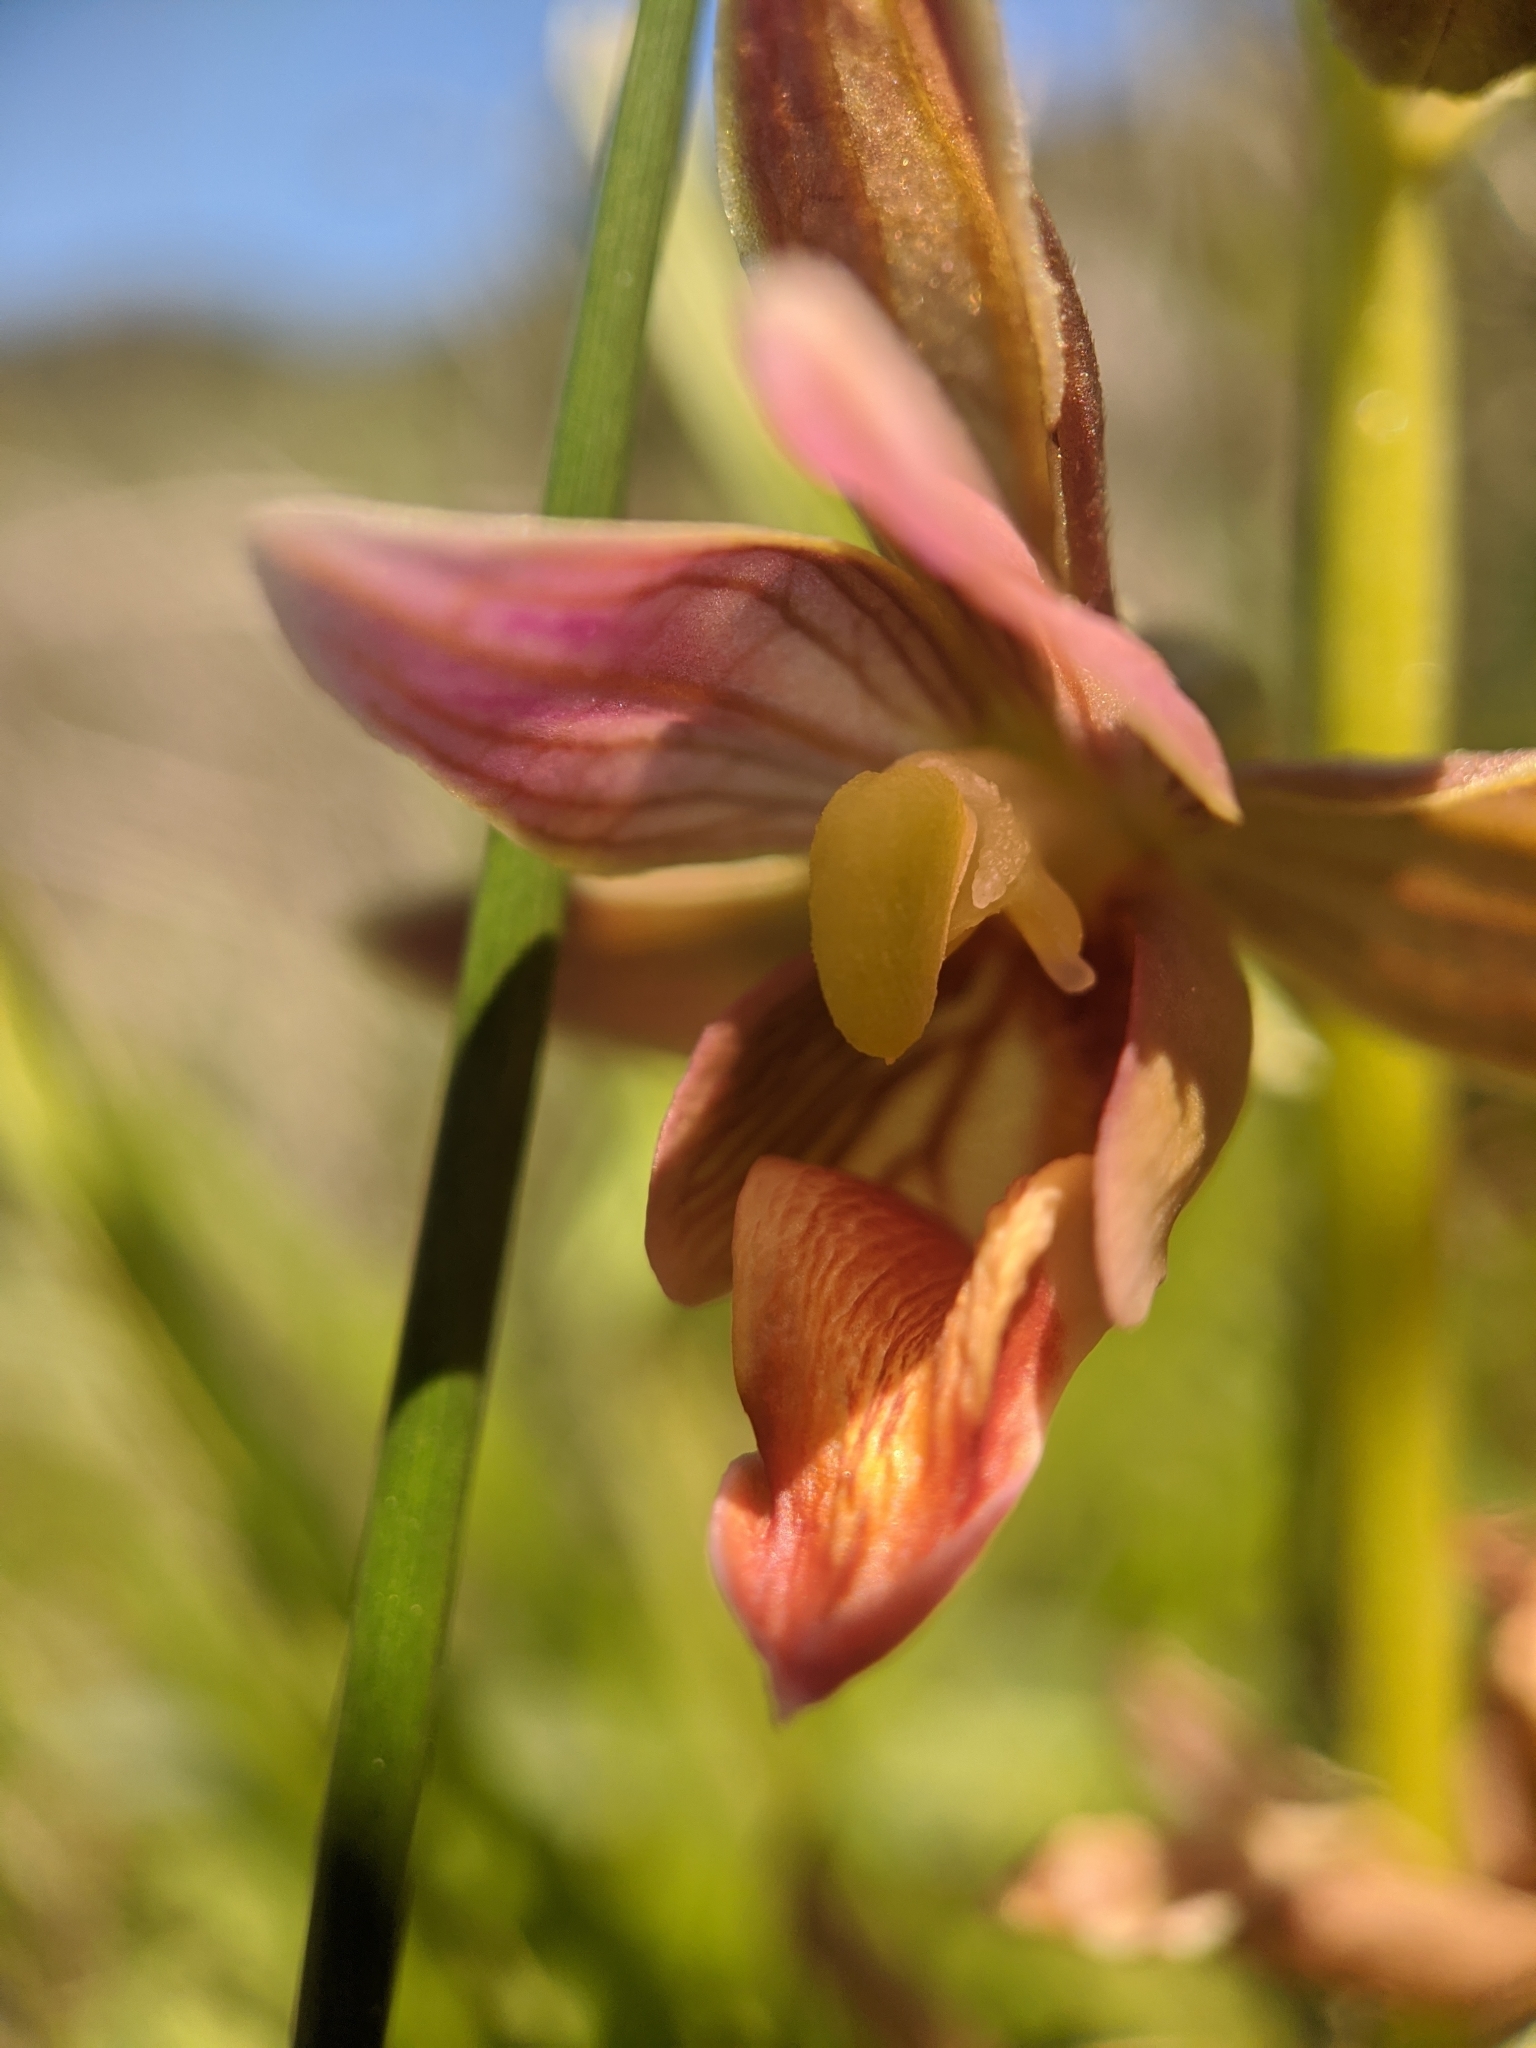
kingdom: Plantae
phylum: Tracheophyta
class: Liliopsida
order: Asparagales
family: Orchidaceae
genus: Epipactis
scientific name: Epipactis gigantea
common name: Chatterbox
